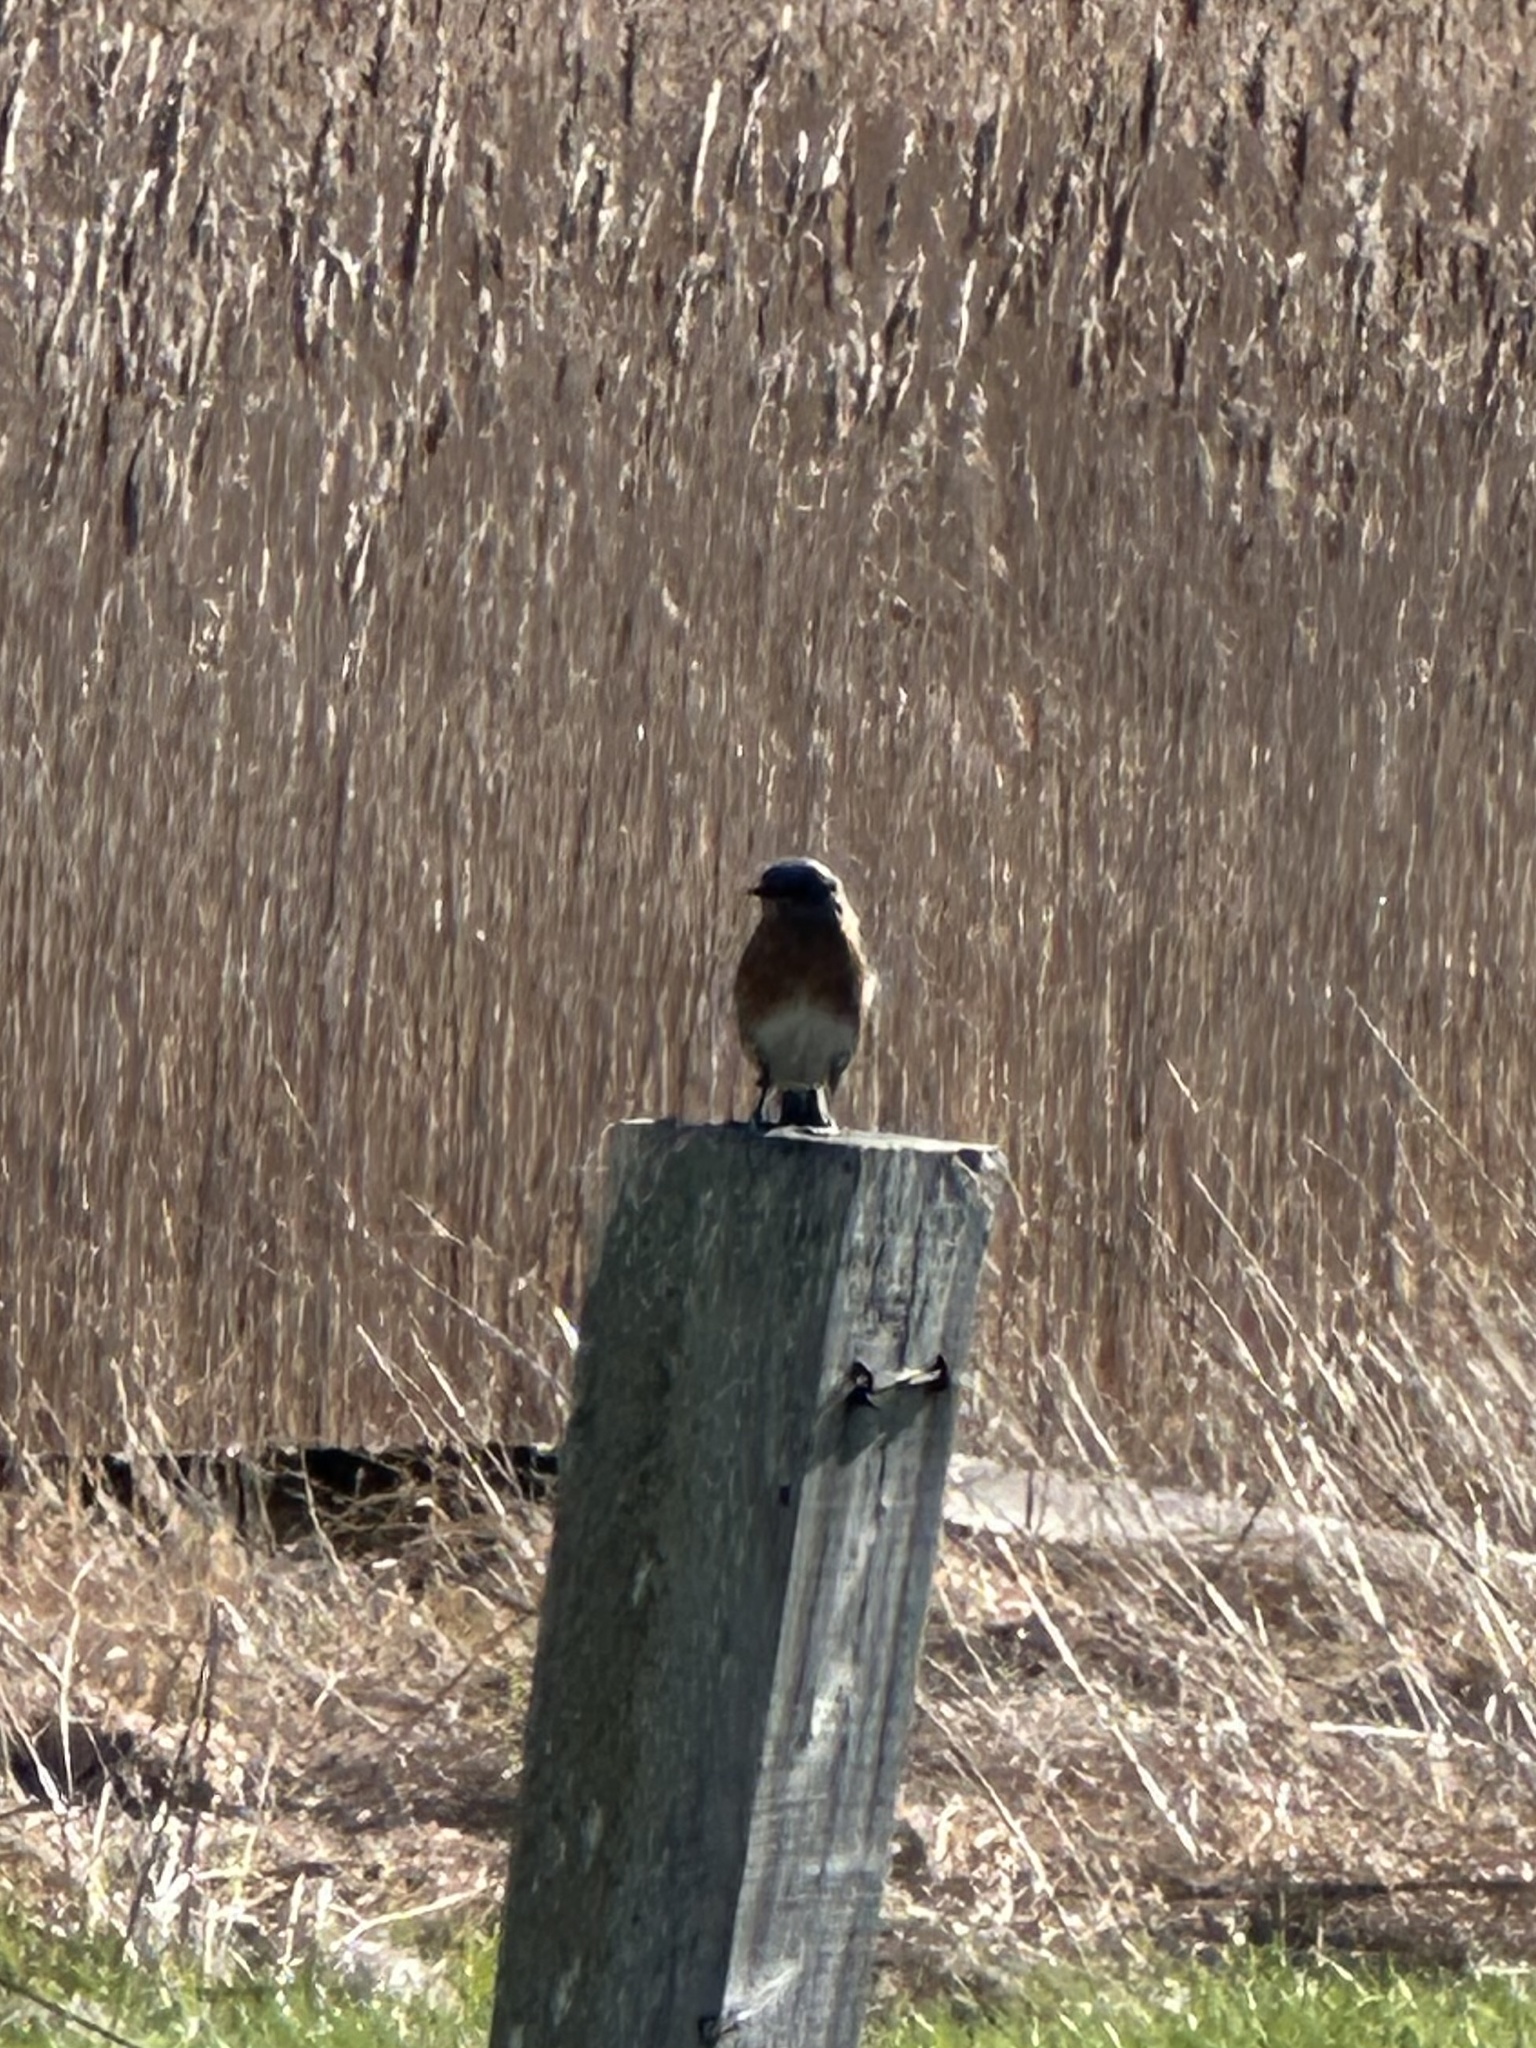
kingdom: Animalia
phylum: Chordata
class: Aves
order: Passeriformes
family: Turdidae
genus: Sialia
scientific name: Sialia sialis
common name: Eastern bluebird
